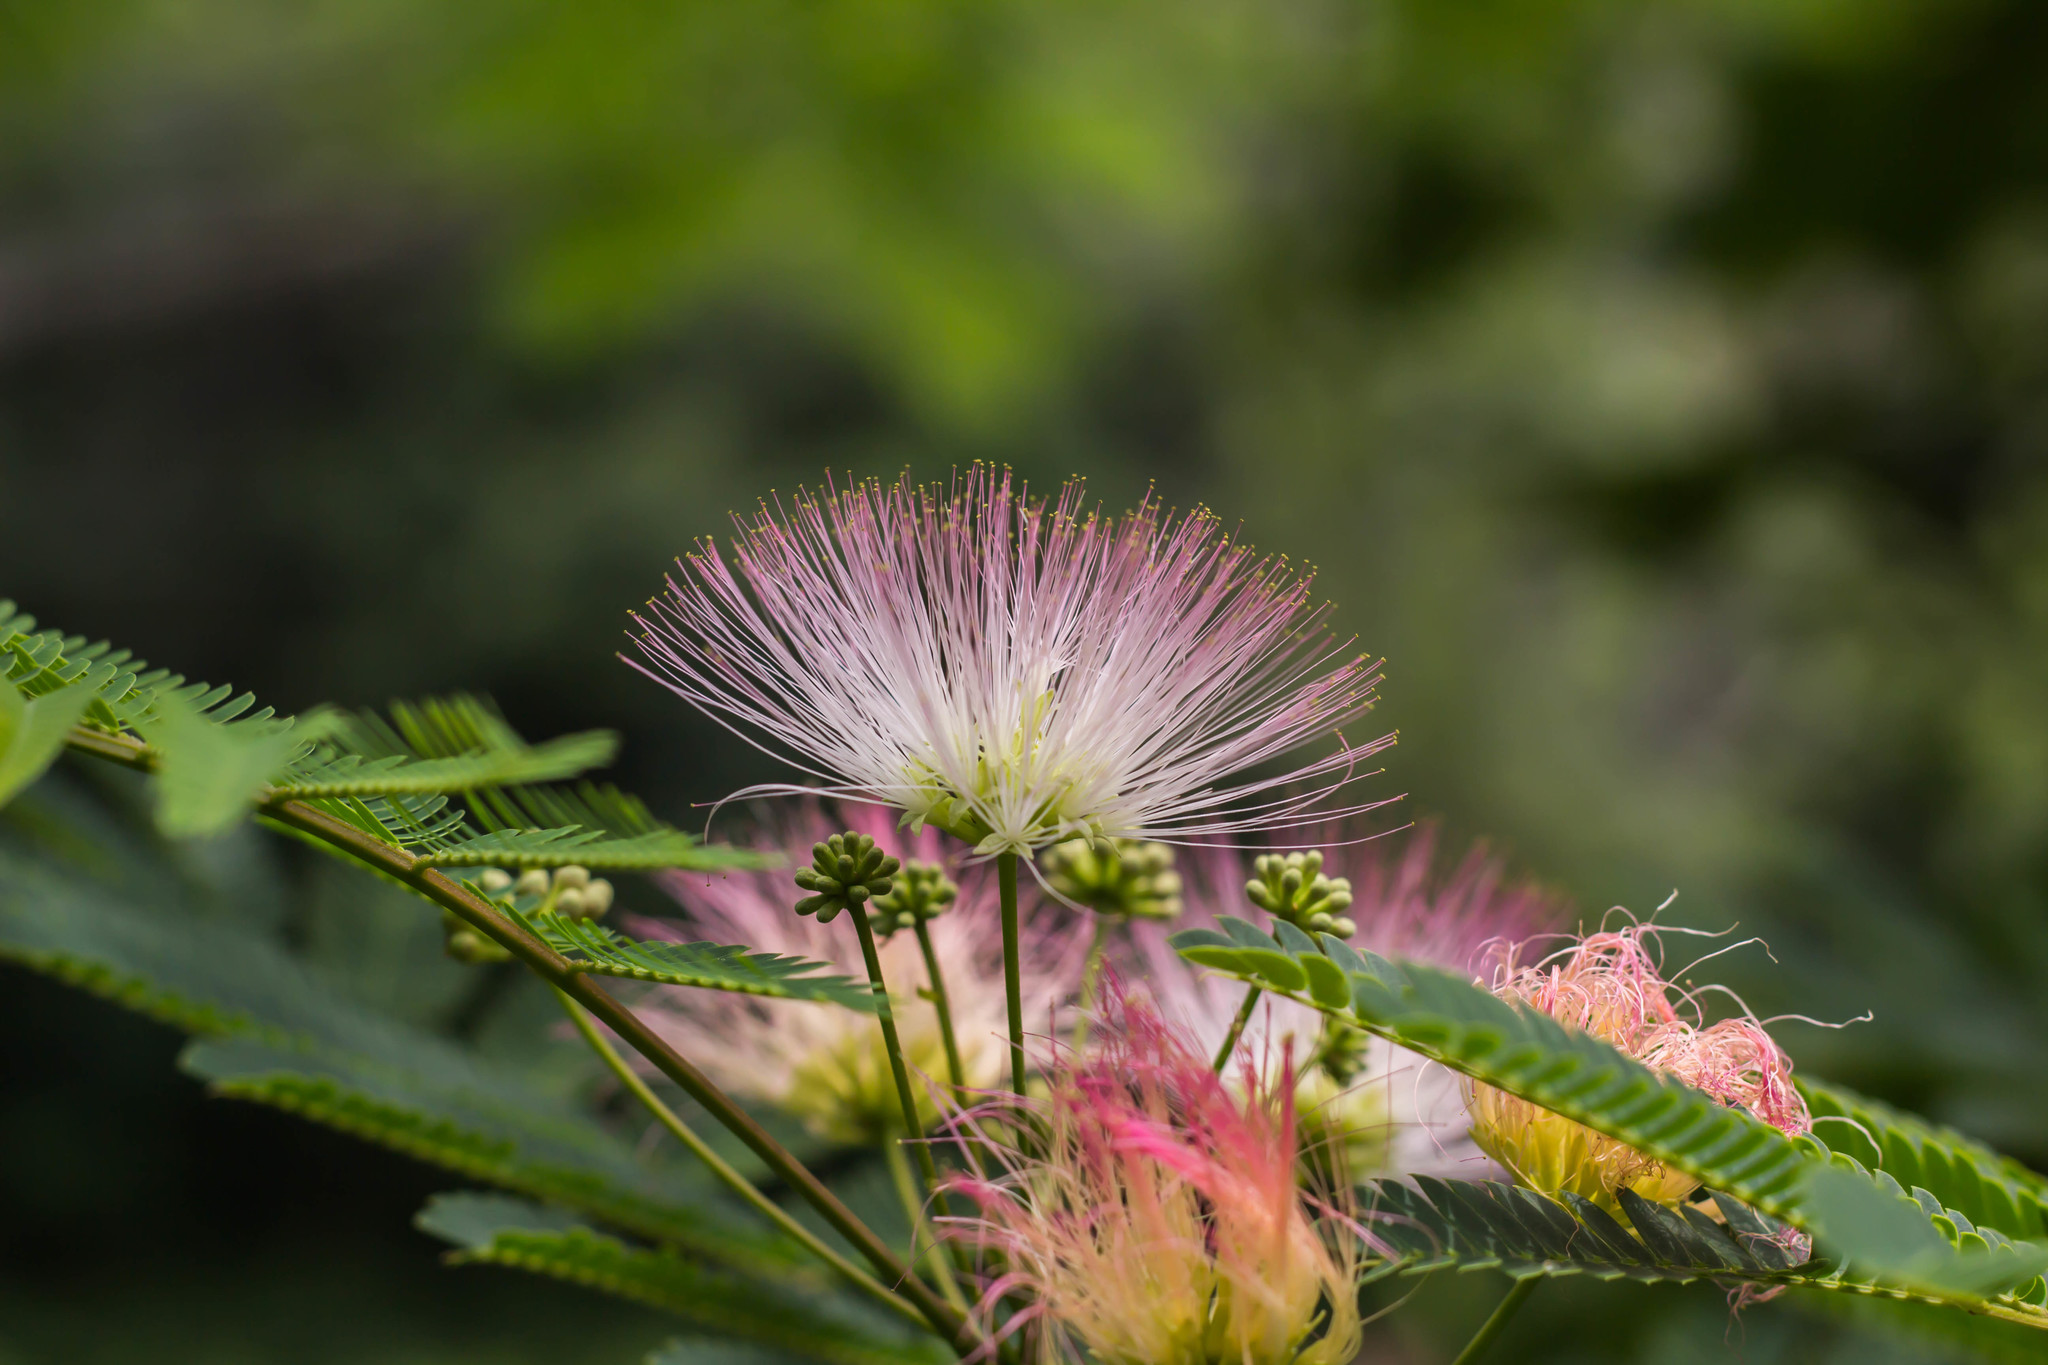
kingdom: Plantae
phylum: Tracheophyta
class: Magnoliopsida
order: Fabales
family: Fabaceae
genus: Albizia
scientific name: Albizia julibrissin
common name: Silktree
